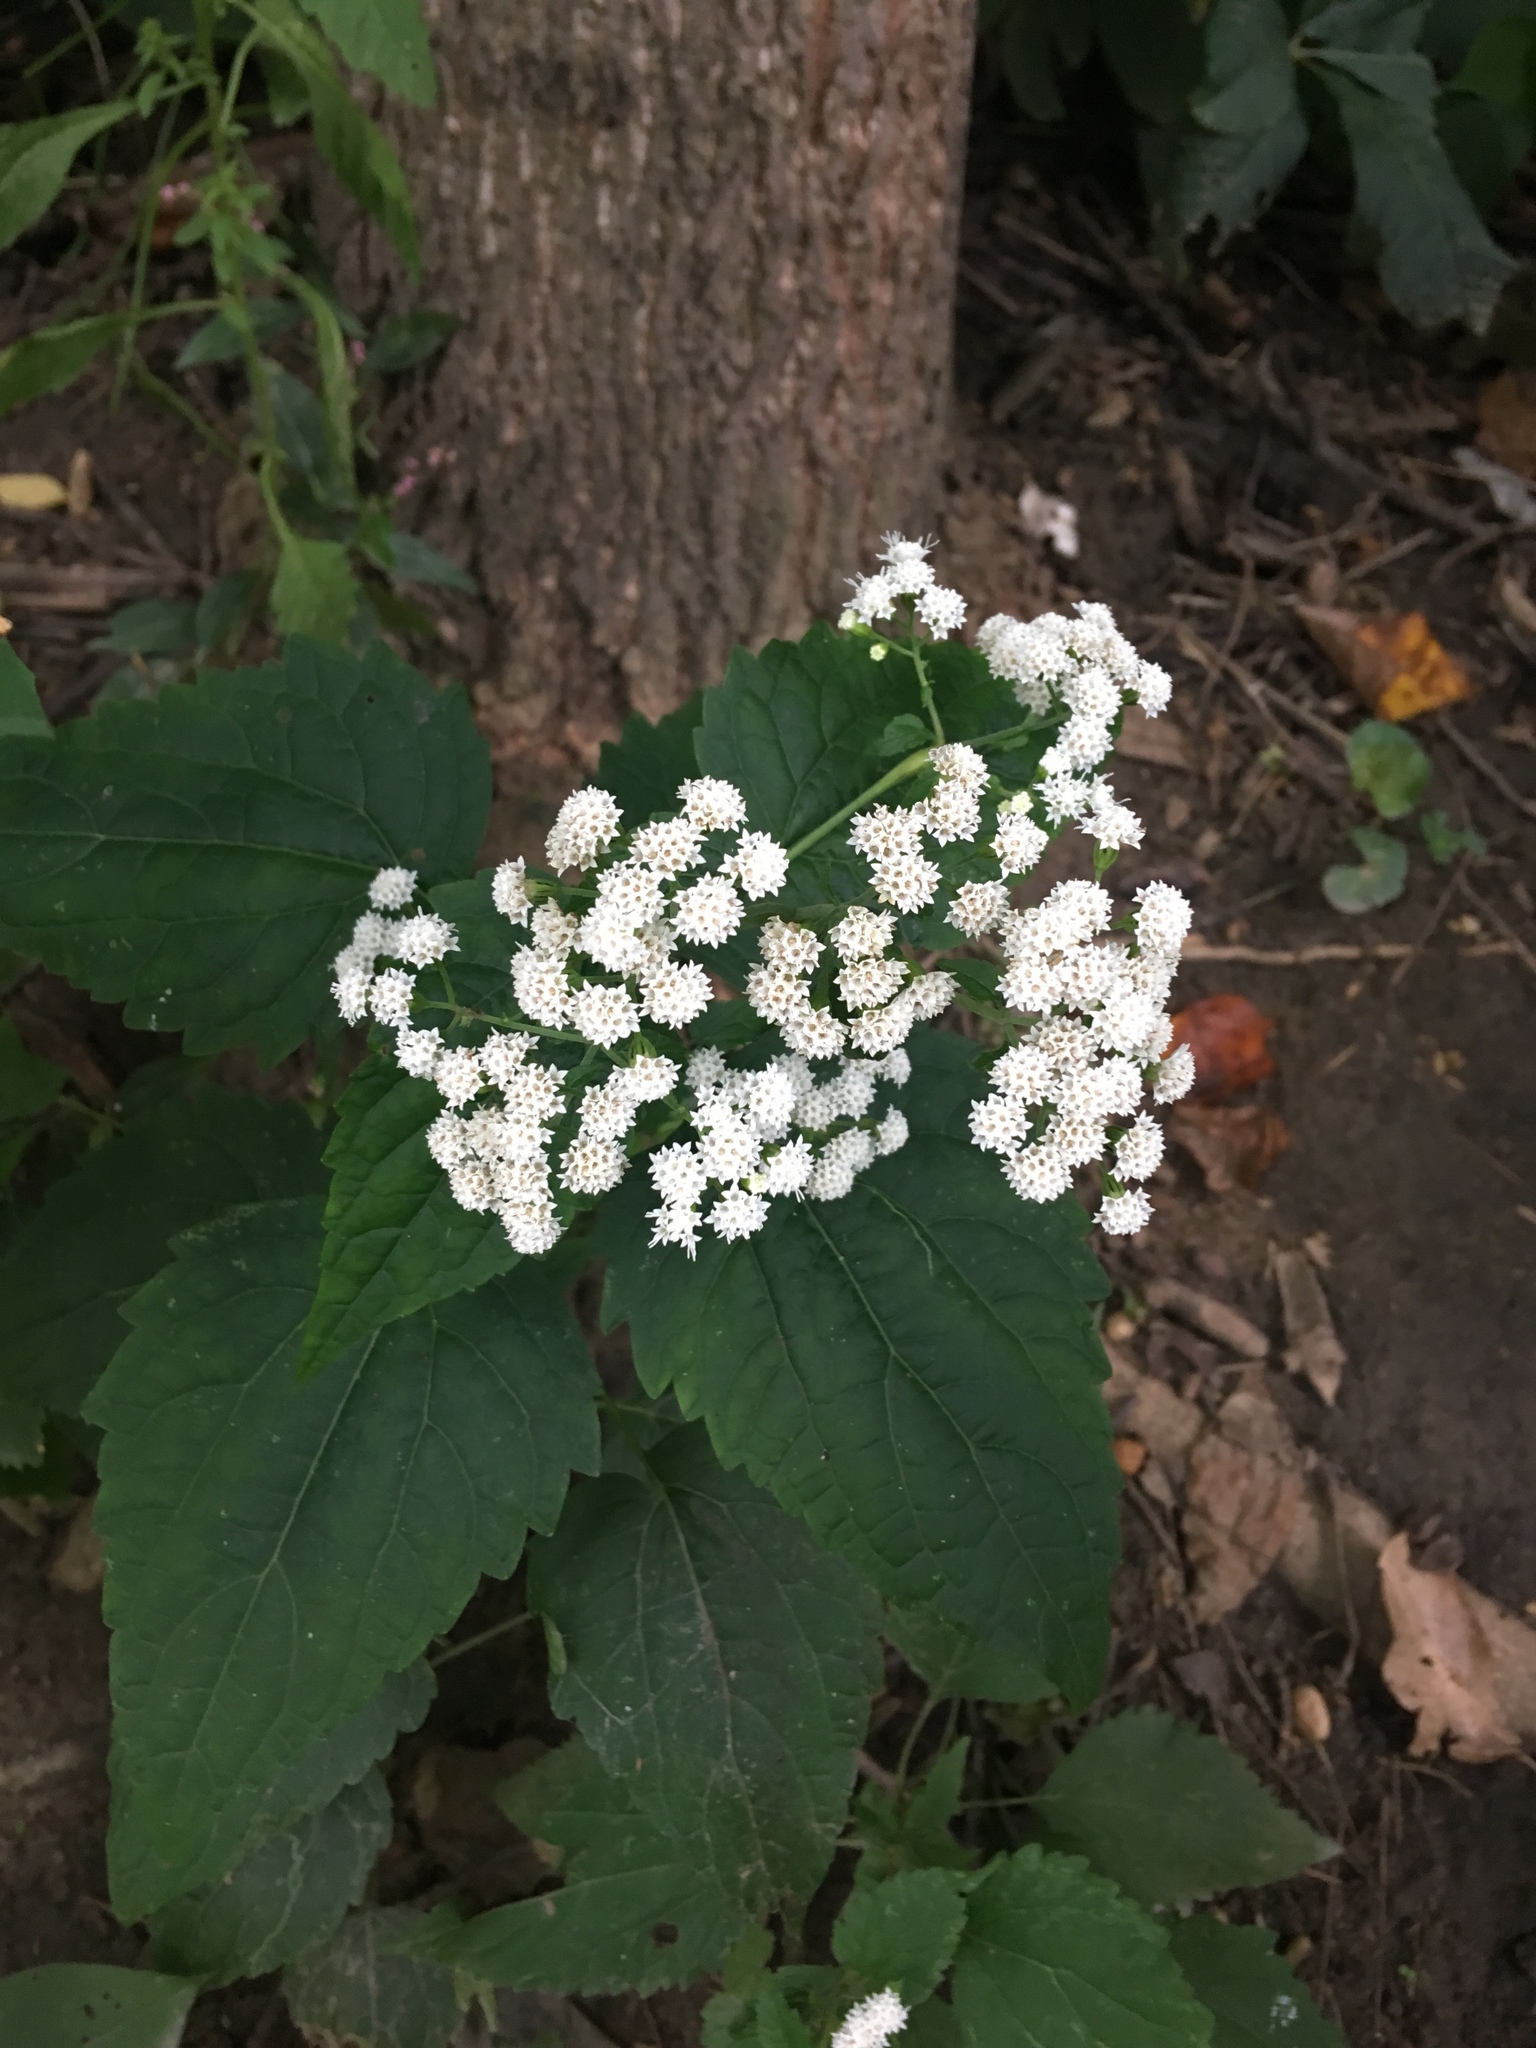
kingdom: Plantae
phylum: Tracheophyta
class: Magnoliopsida
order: Asterales
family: Asteraceae
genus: Ageratina
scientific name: Ageratina altissima
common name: White snakeroot
